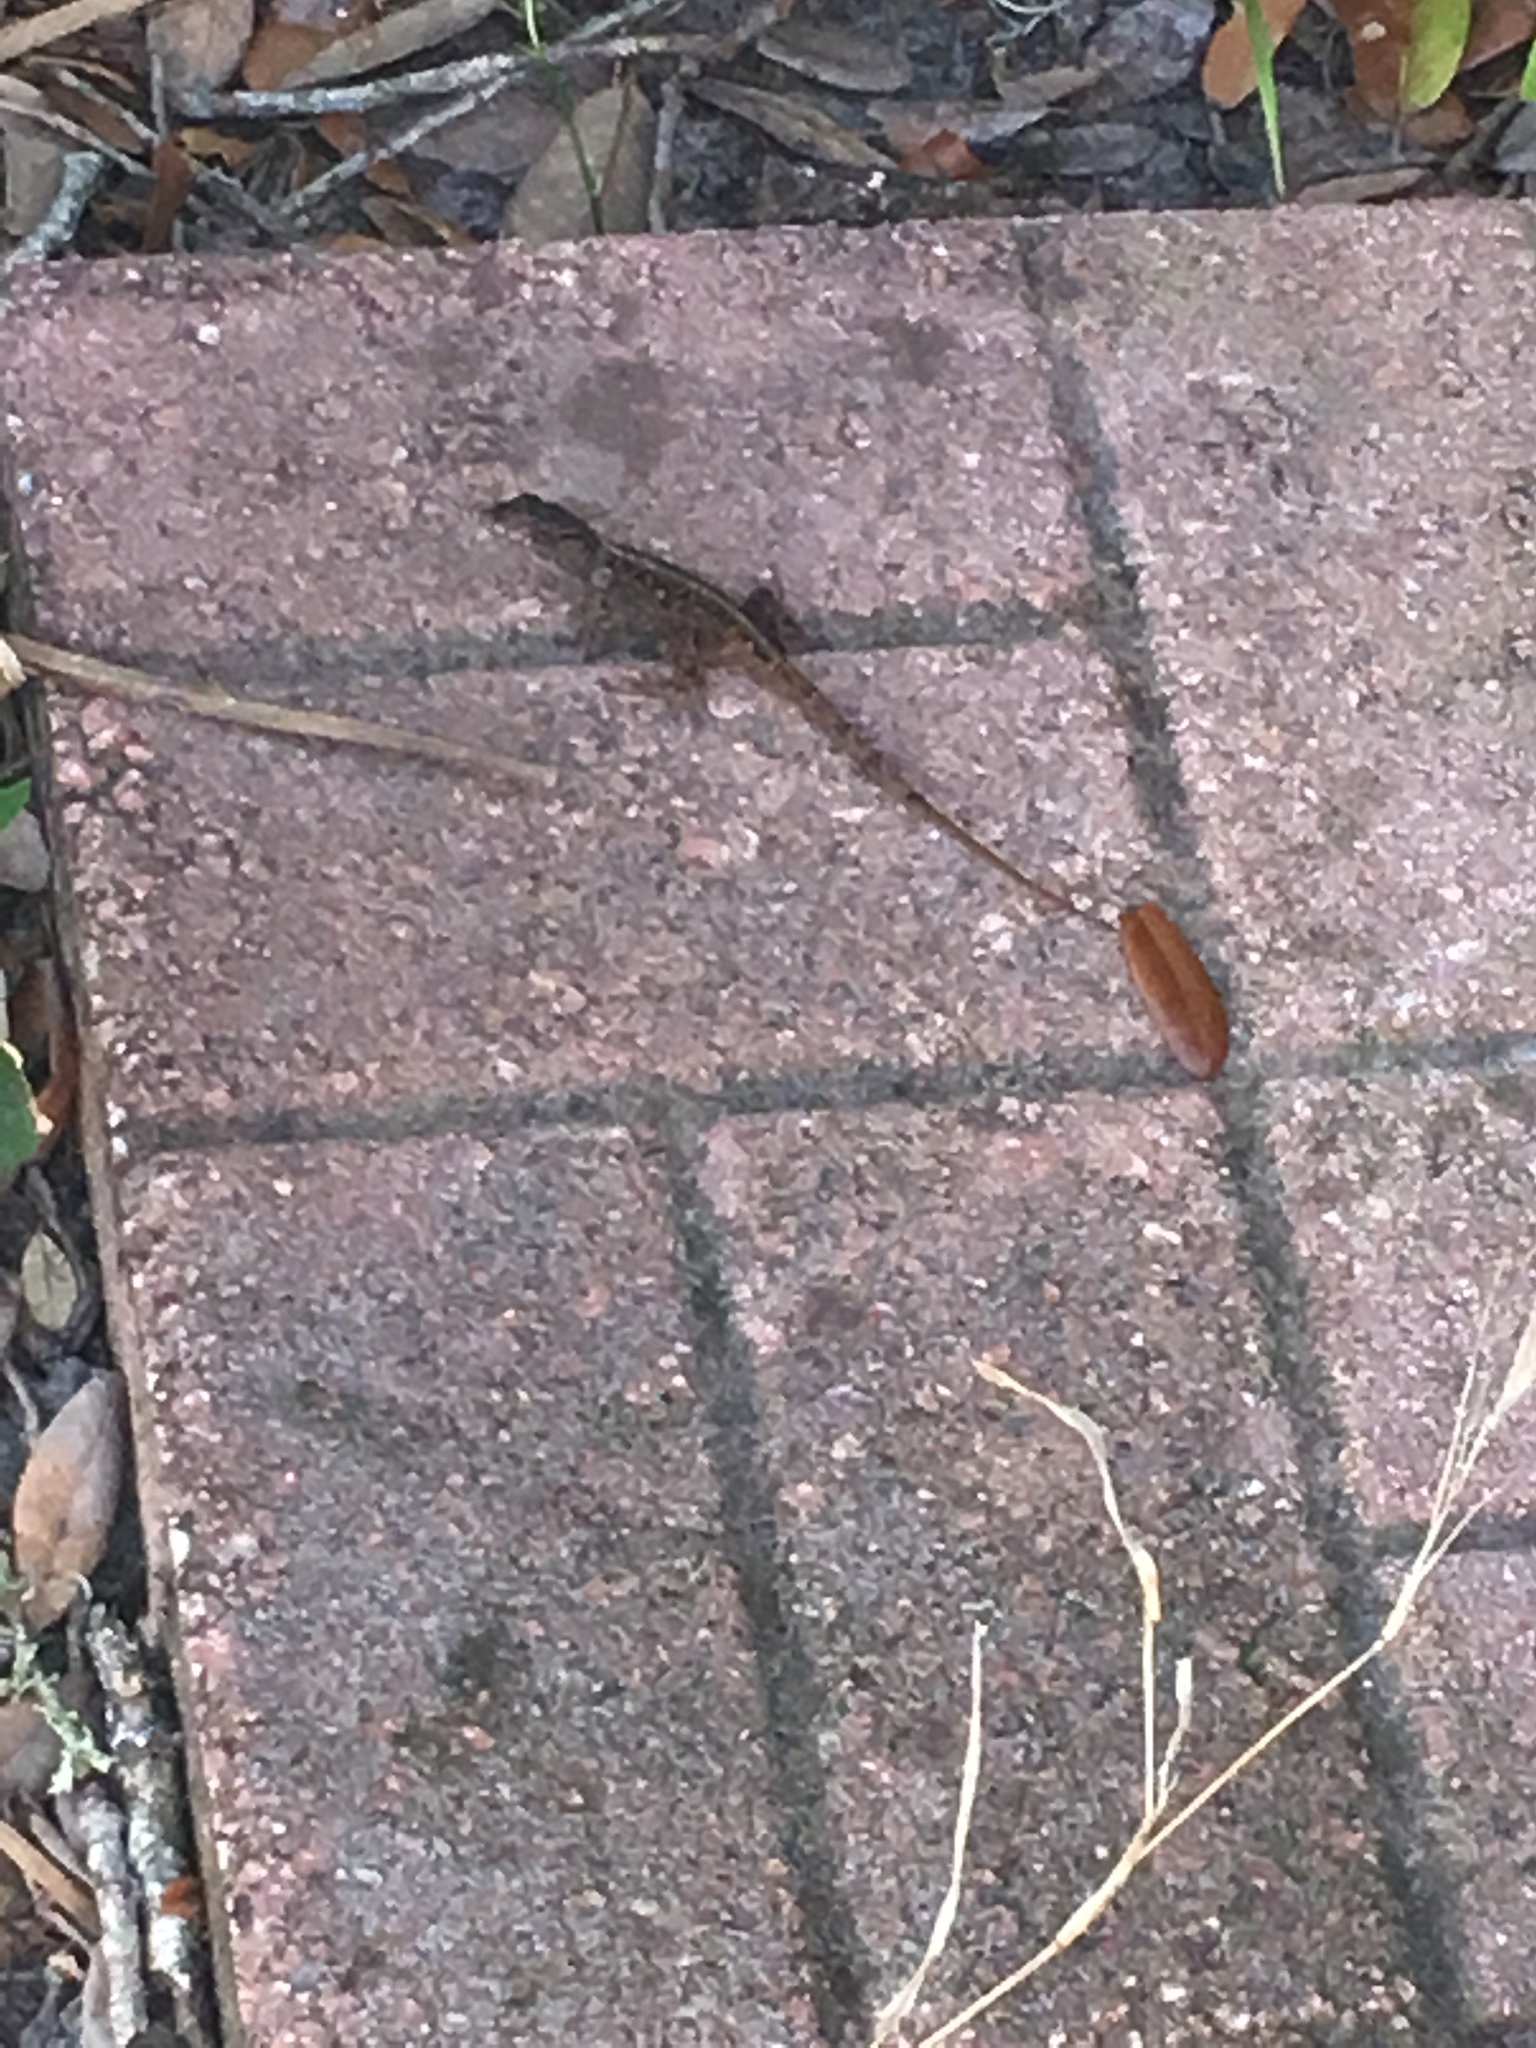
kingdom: Animalia
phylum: Chordata
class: Squamata
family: Dactyloidae
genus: Anolis
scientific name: Anolis sagrei
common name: Brown anole
